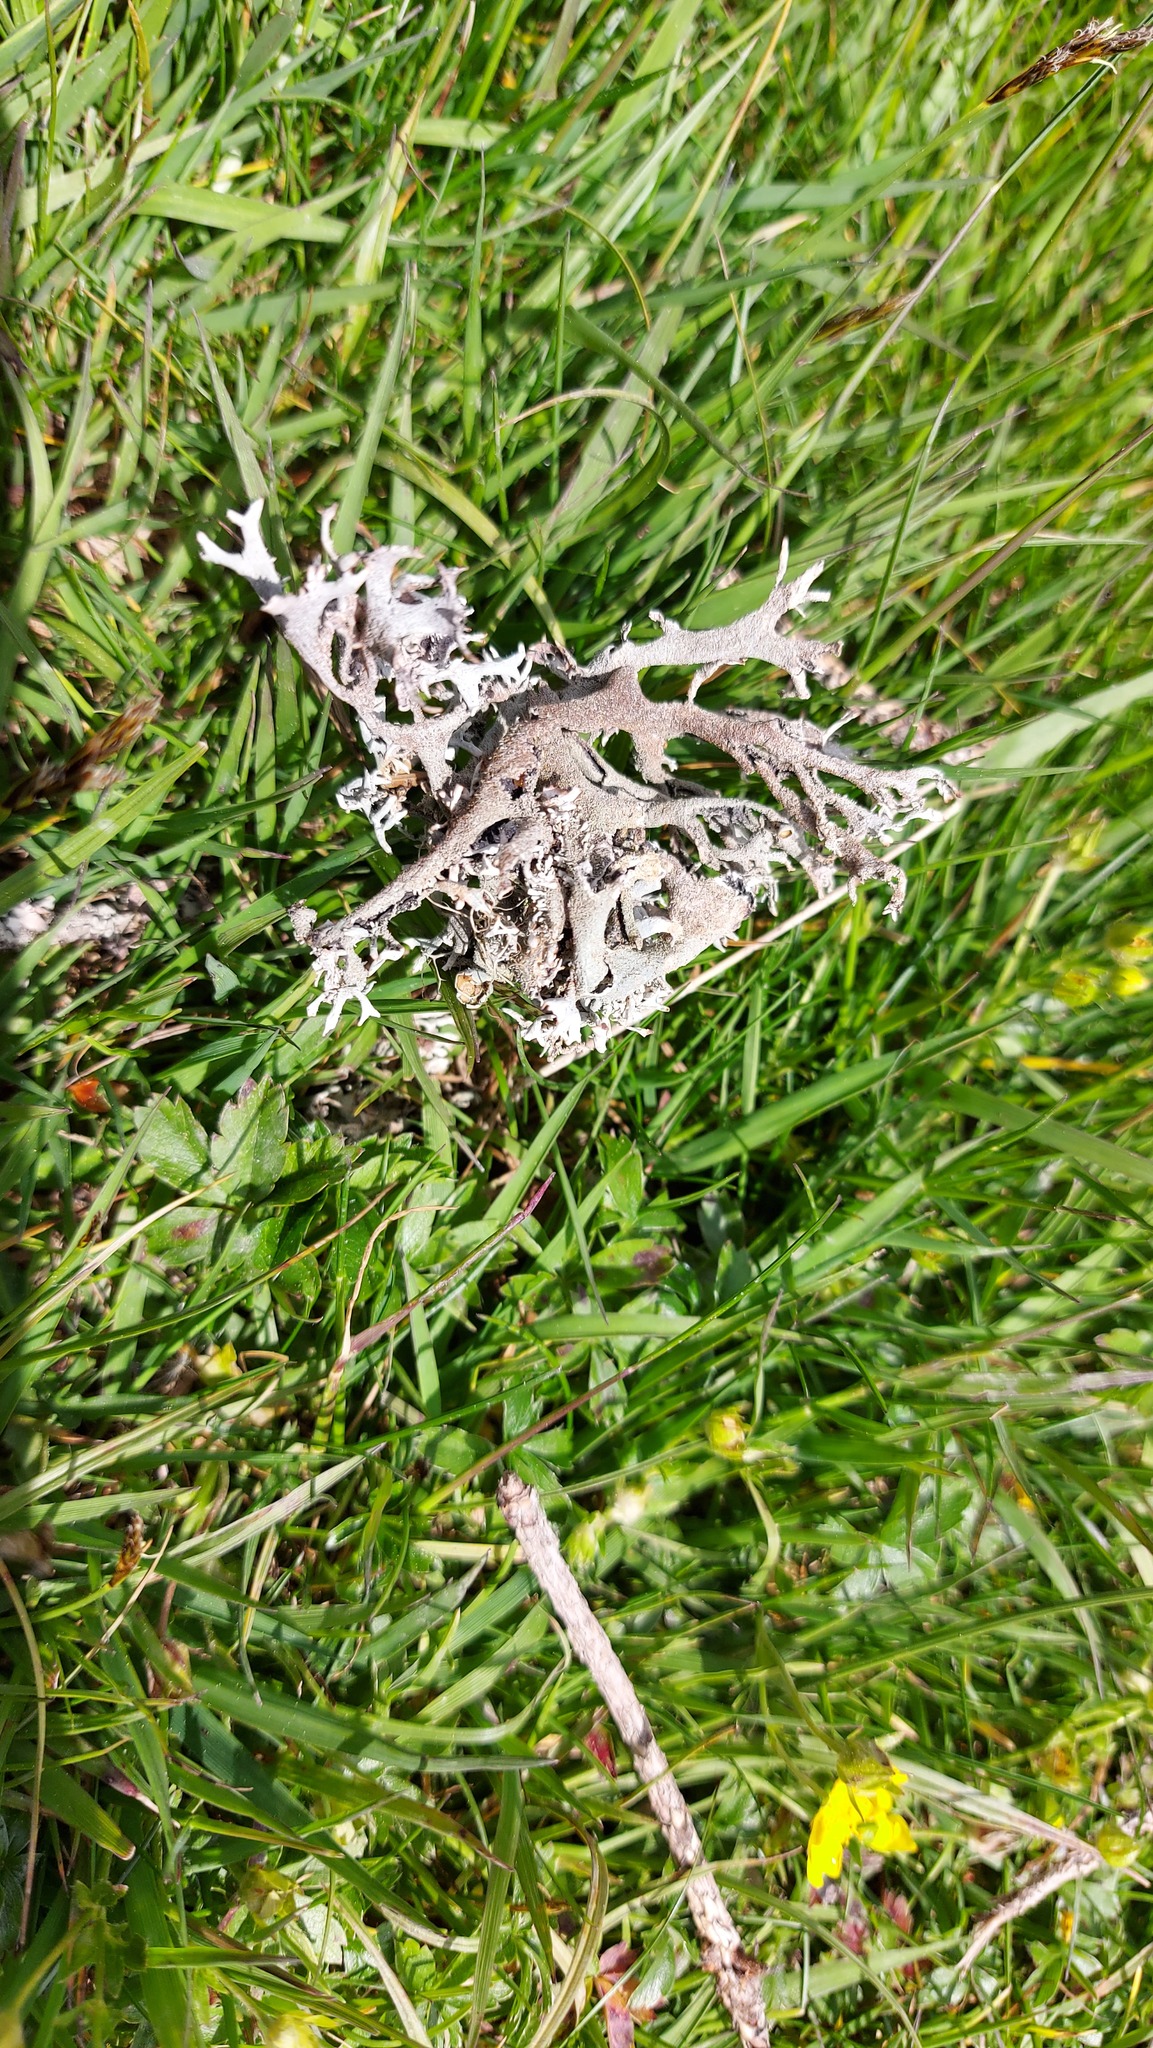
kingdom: Fungi
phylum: Ascomycota
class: Lecanoromycetes
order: Lecanorales
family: Parmeliaceae
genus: Pseudevernia
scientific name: Pseudevernia furfuracea
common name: Tree moss
